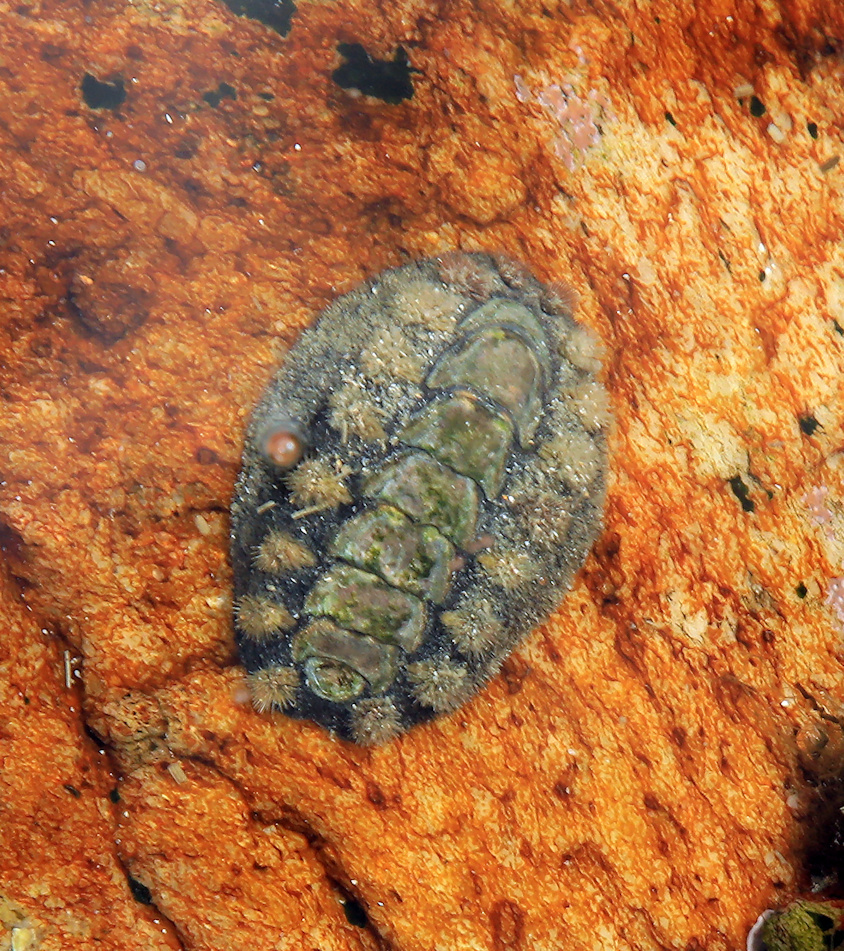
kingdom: Animalia
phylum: Mollusca
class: Polyplacophora
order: Chitonida
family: Acanthochitonidae
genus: Acanthochitona
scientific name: Acanthochitona garnoti
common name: Spiny chiton
